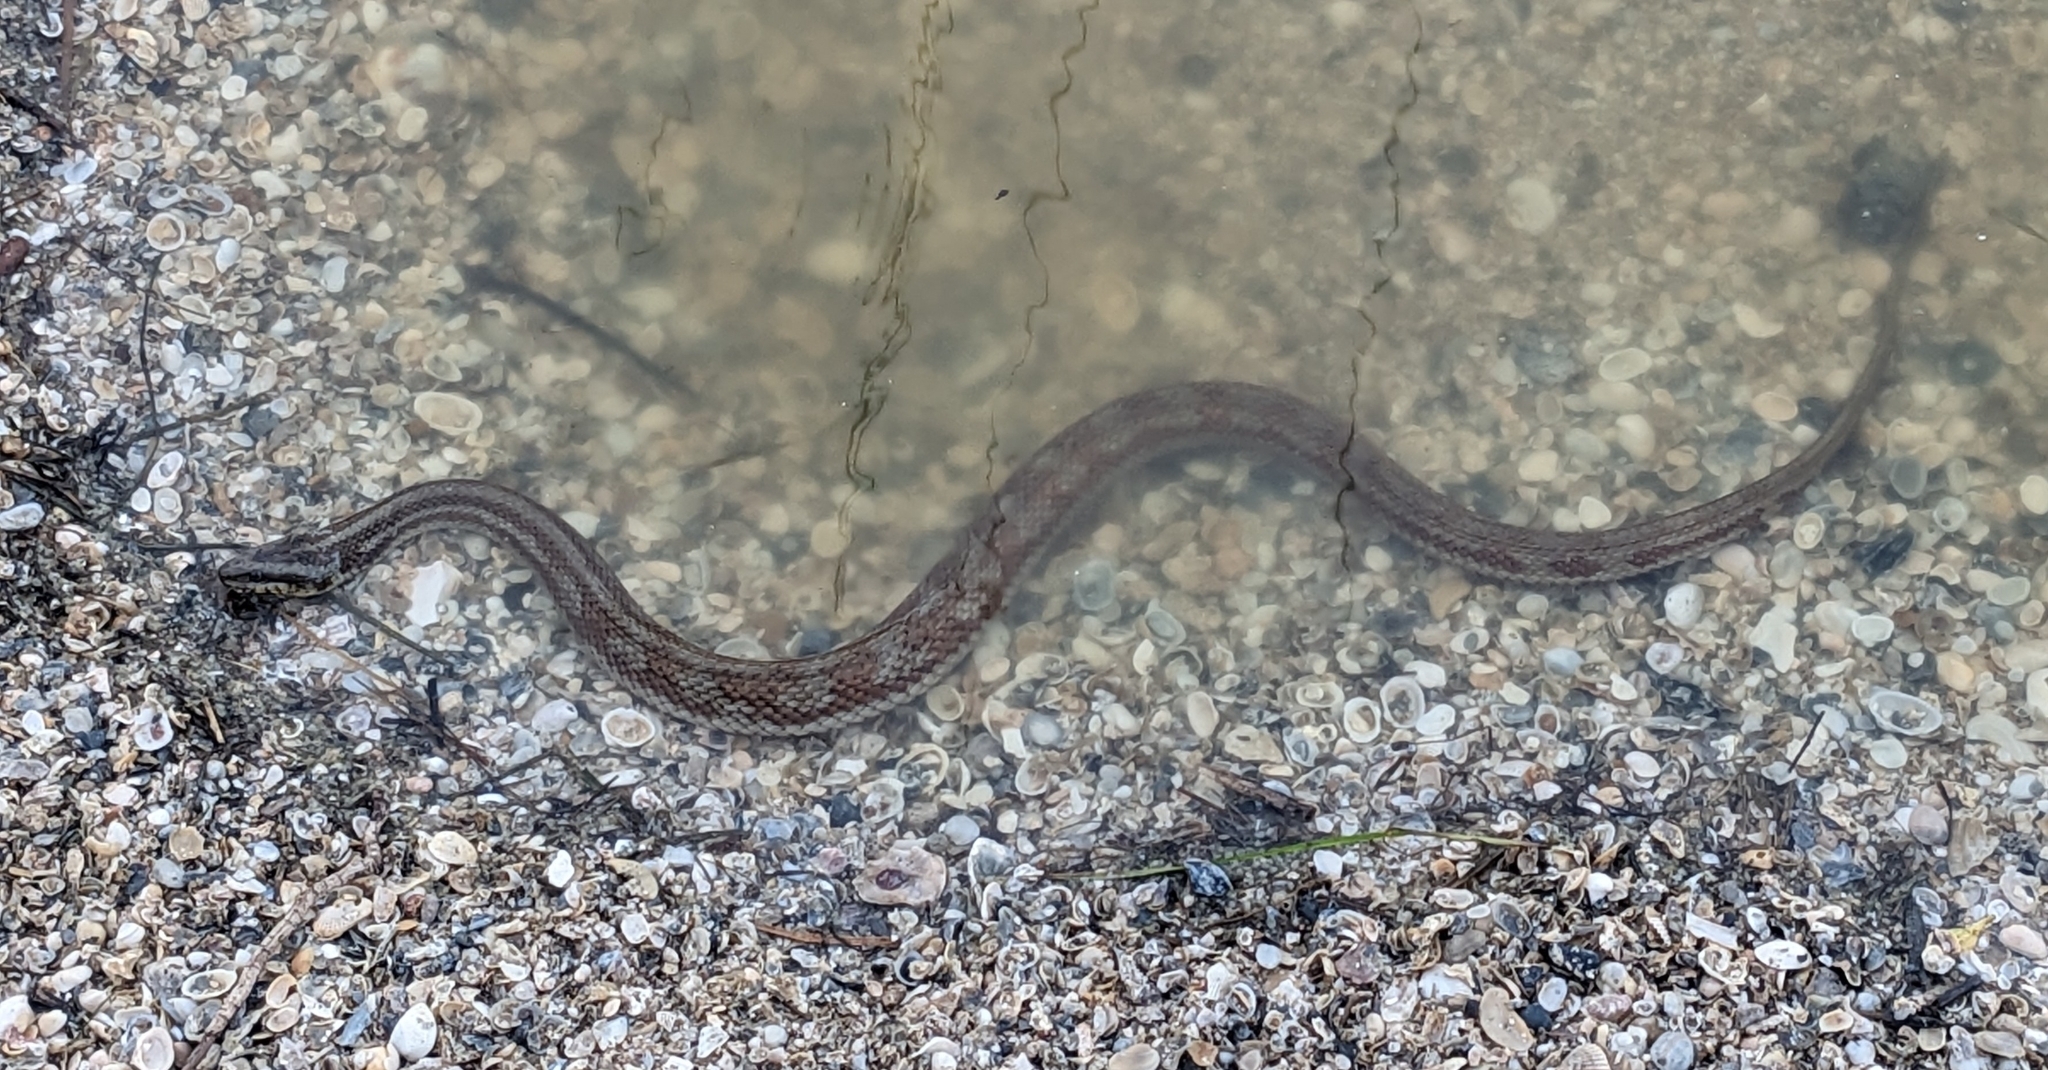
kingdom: Animalia
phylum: Chordata
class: Squamata
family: Colubridae
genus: Nerodia
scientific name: Nerodia clarkii
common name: Atlantic saltmarsh snake
